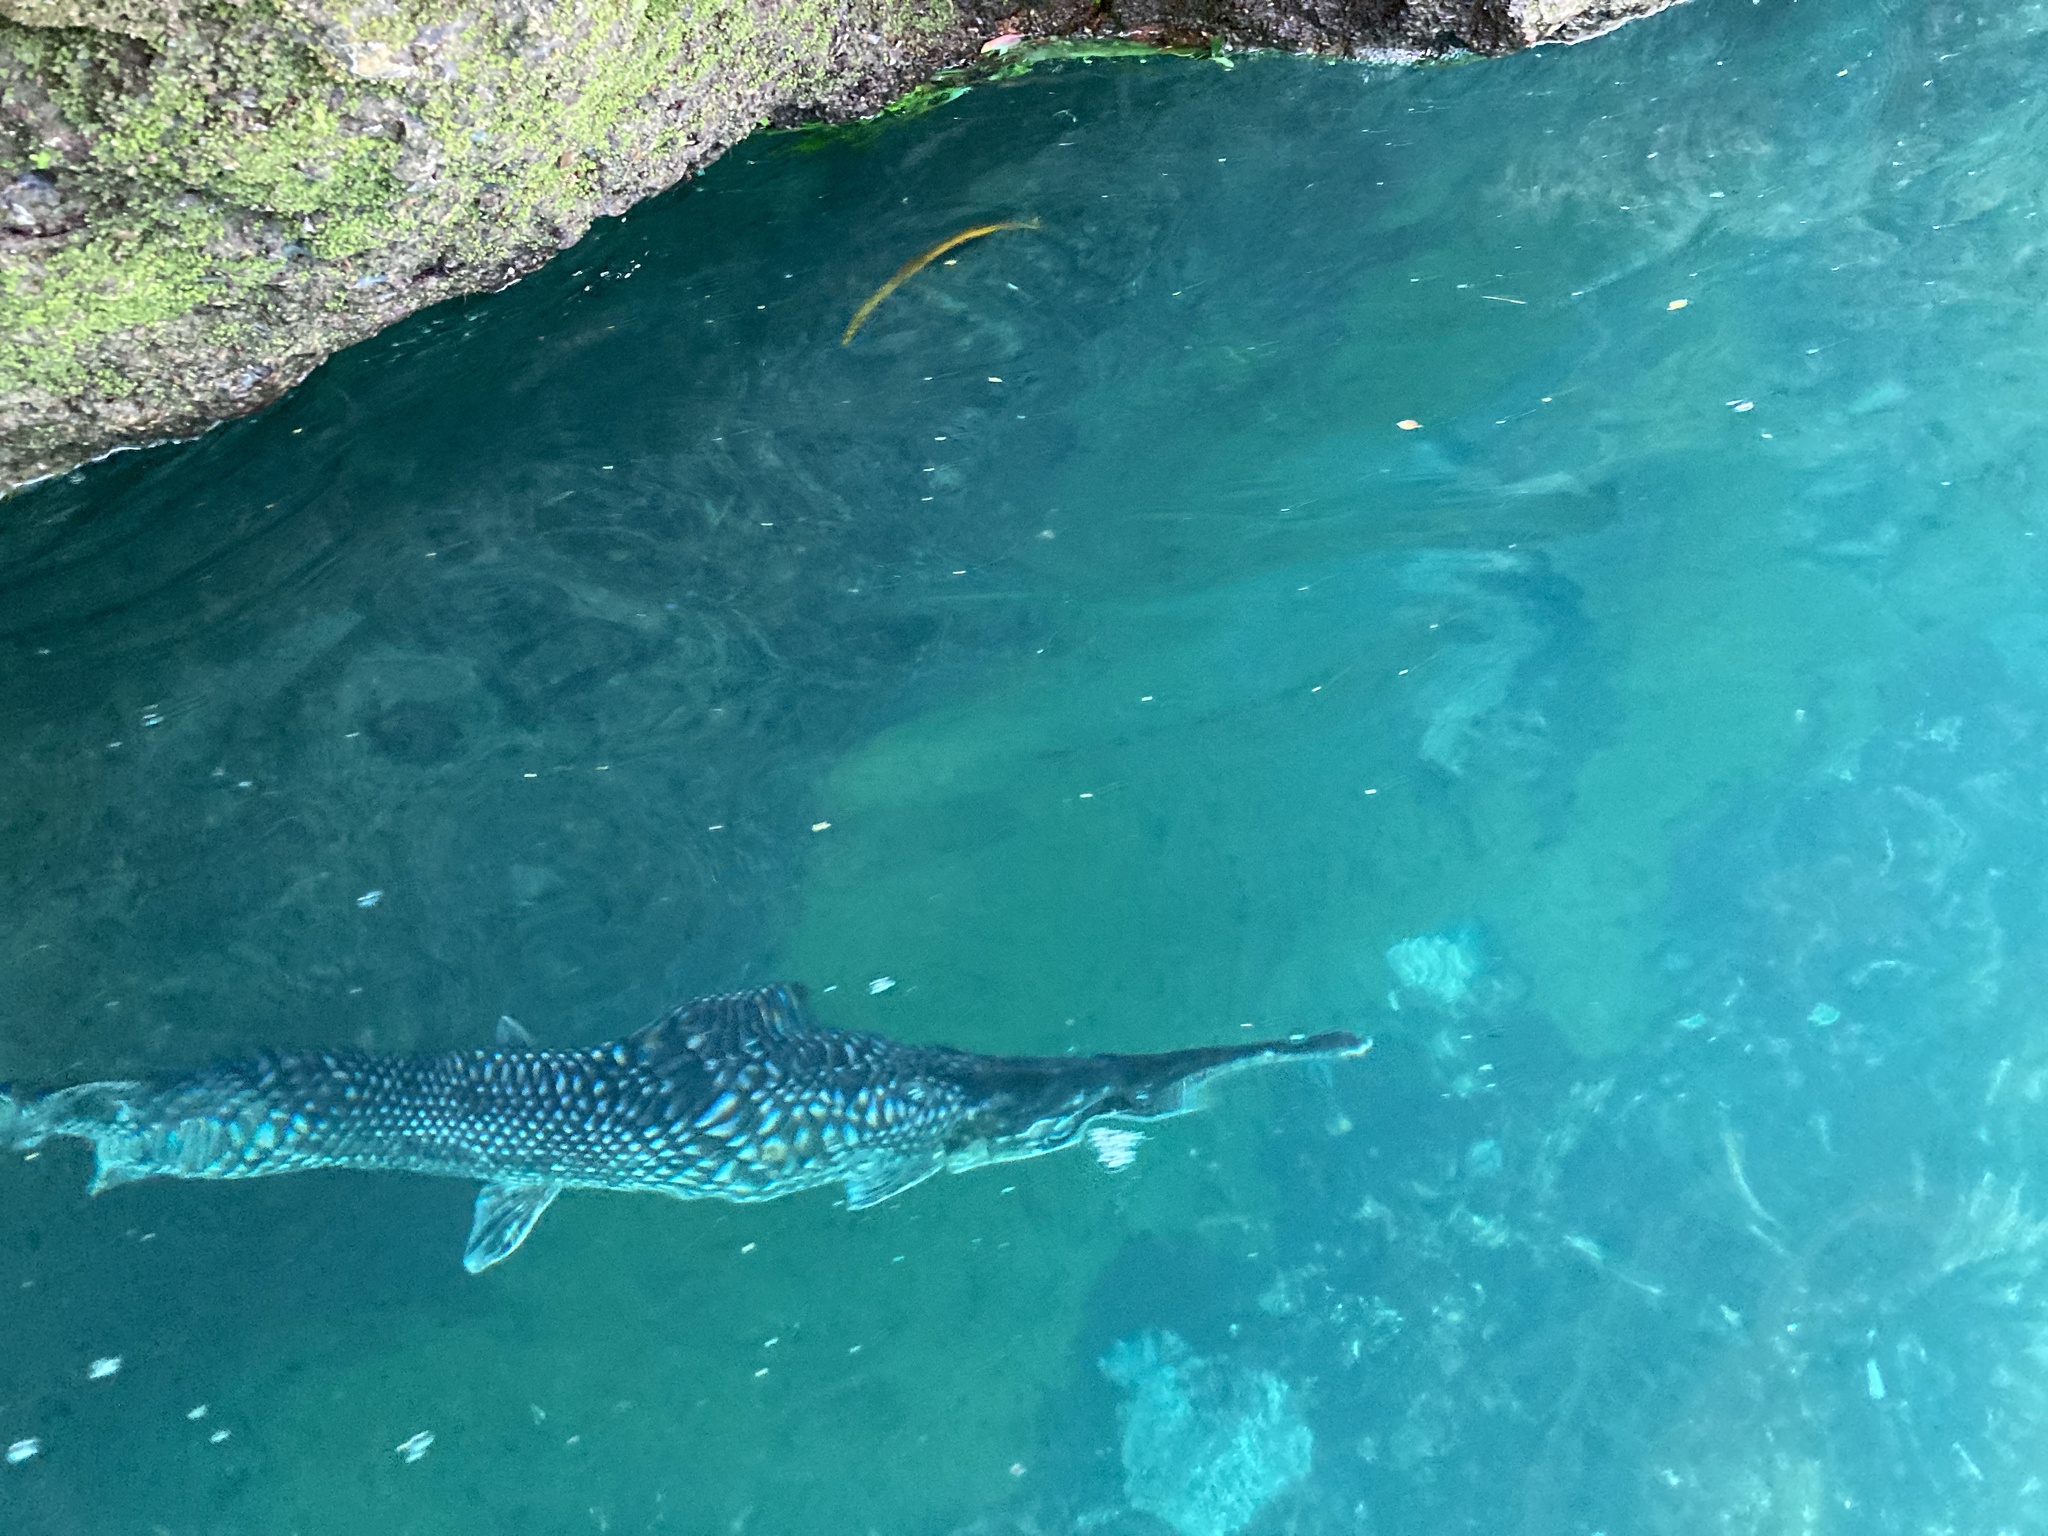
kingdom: Animalia
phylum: Chordata
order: Lepisosteiformes
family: Lepisosteidae
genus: Lepisosteus
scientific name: Lepisosteus osseus
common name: Longnose gar
